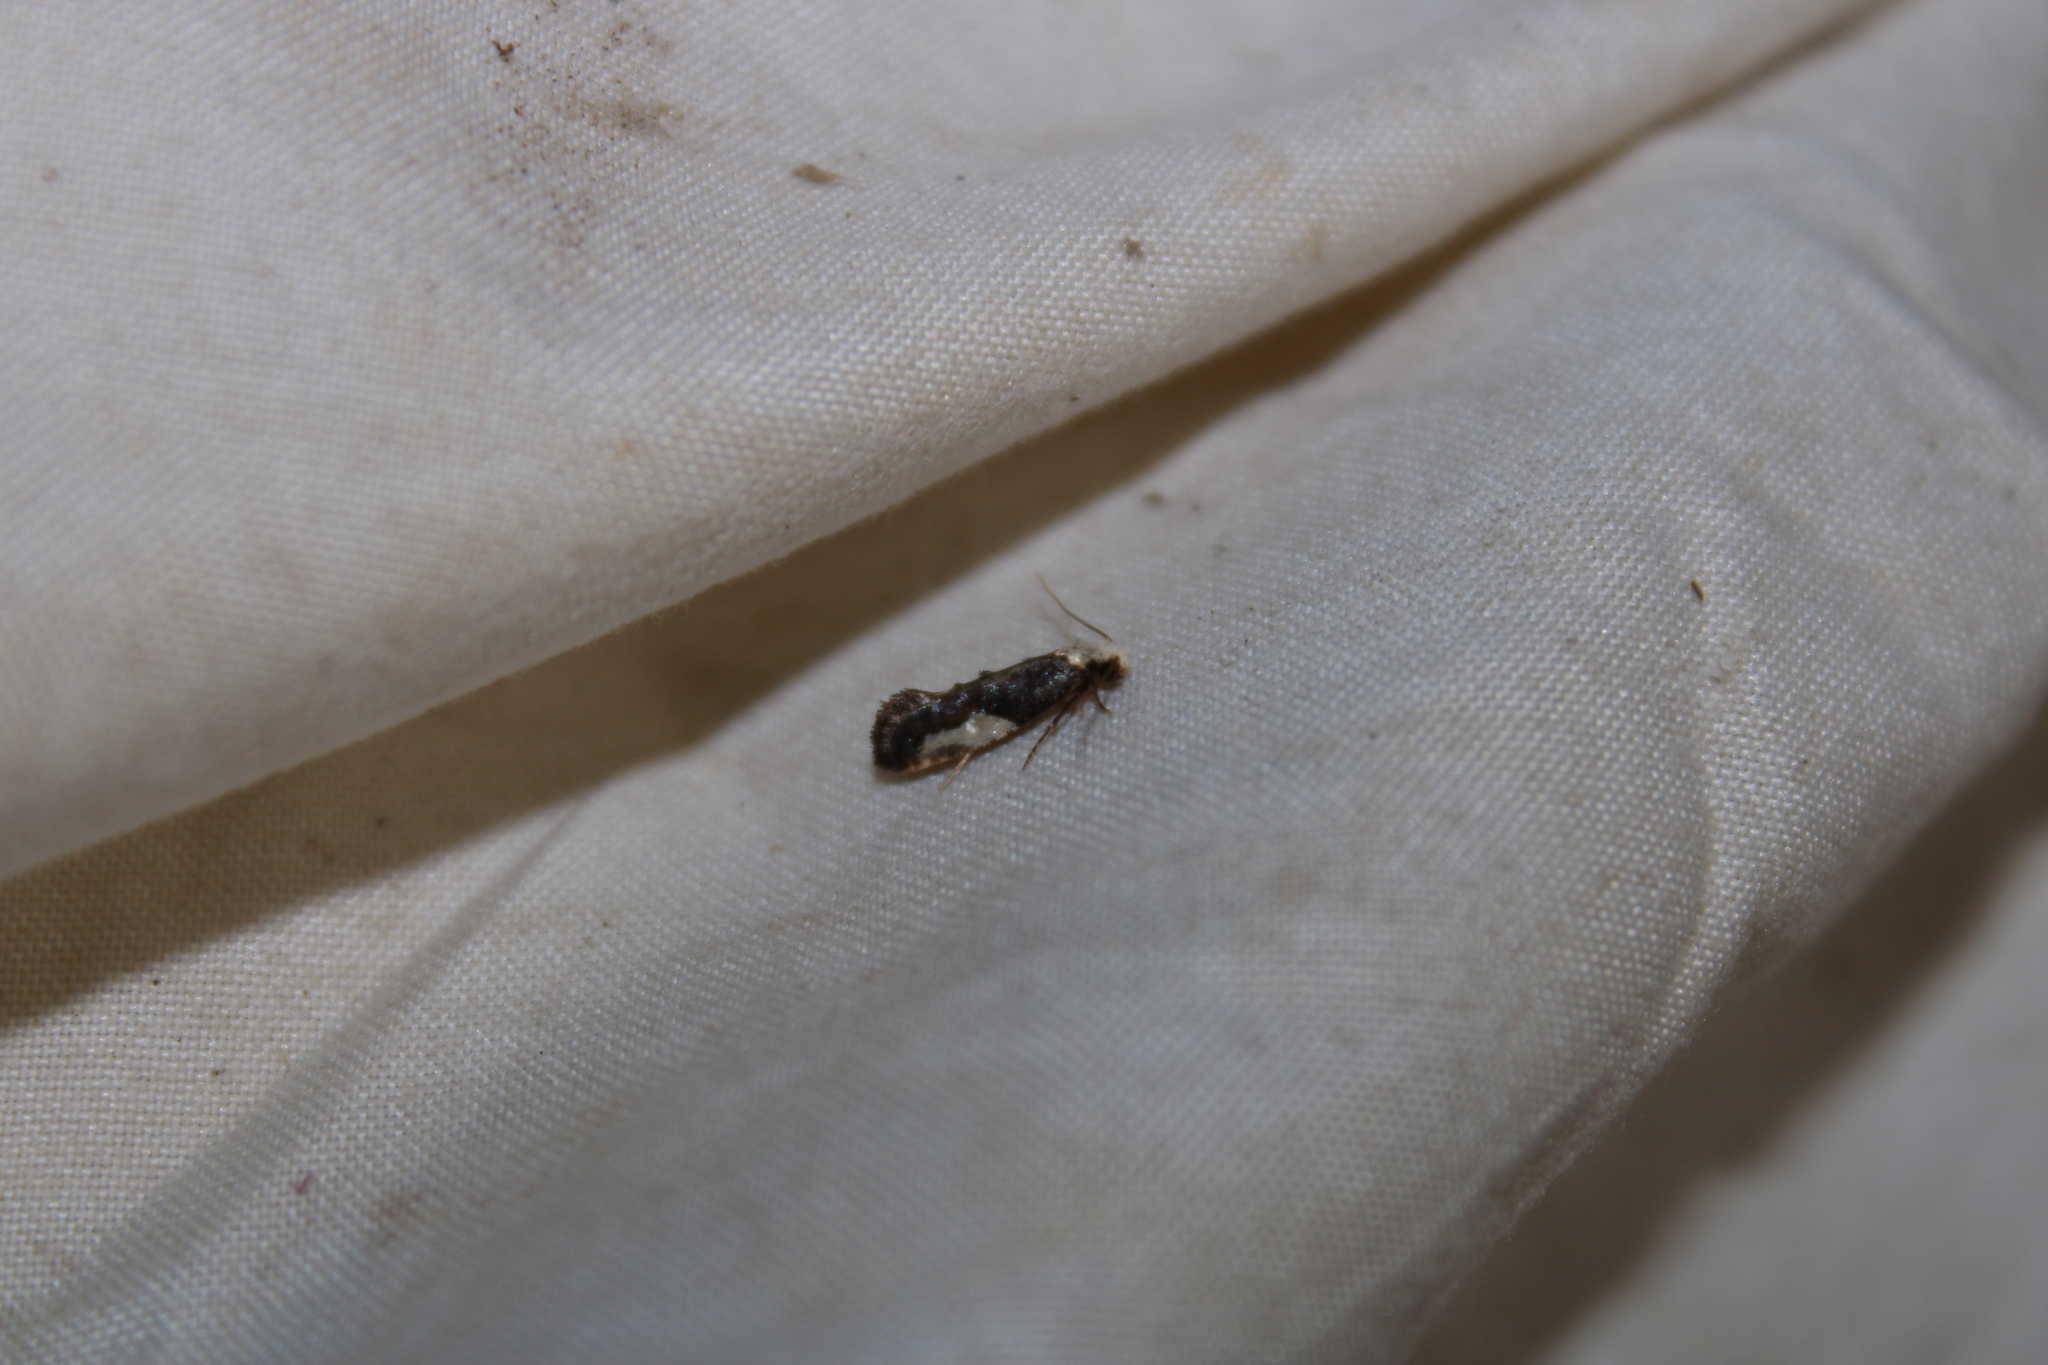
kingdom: Animalia
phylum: Arthropoda
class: Insecta
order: Lepidoptera
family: Tineidae
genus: Monopis
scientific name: Monopis longella
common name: Pavlovski's monopis moth
